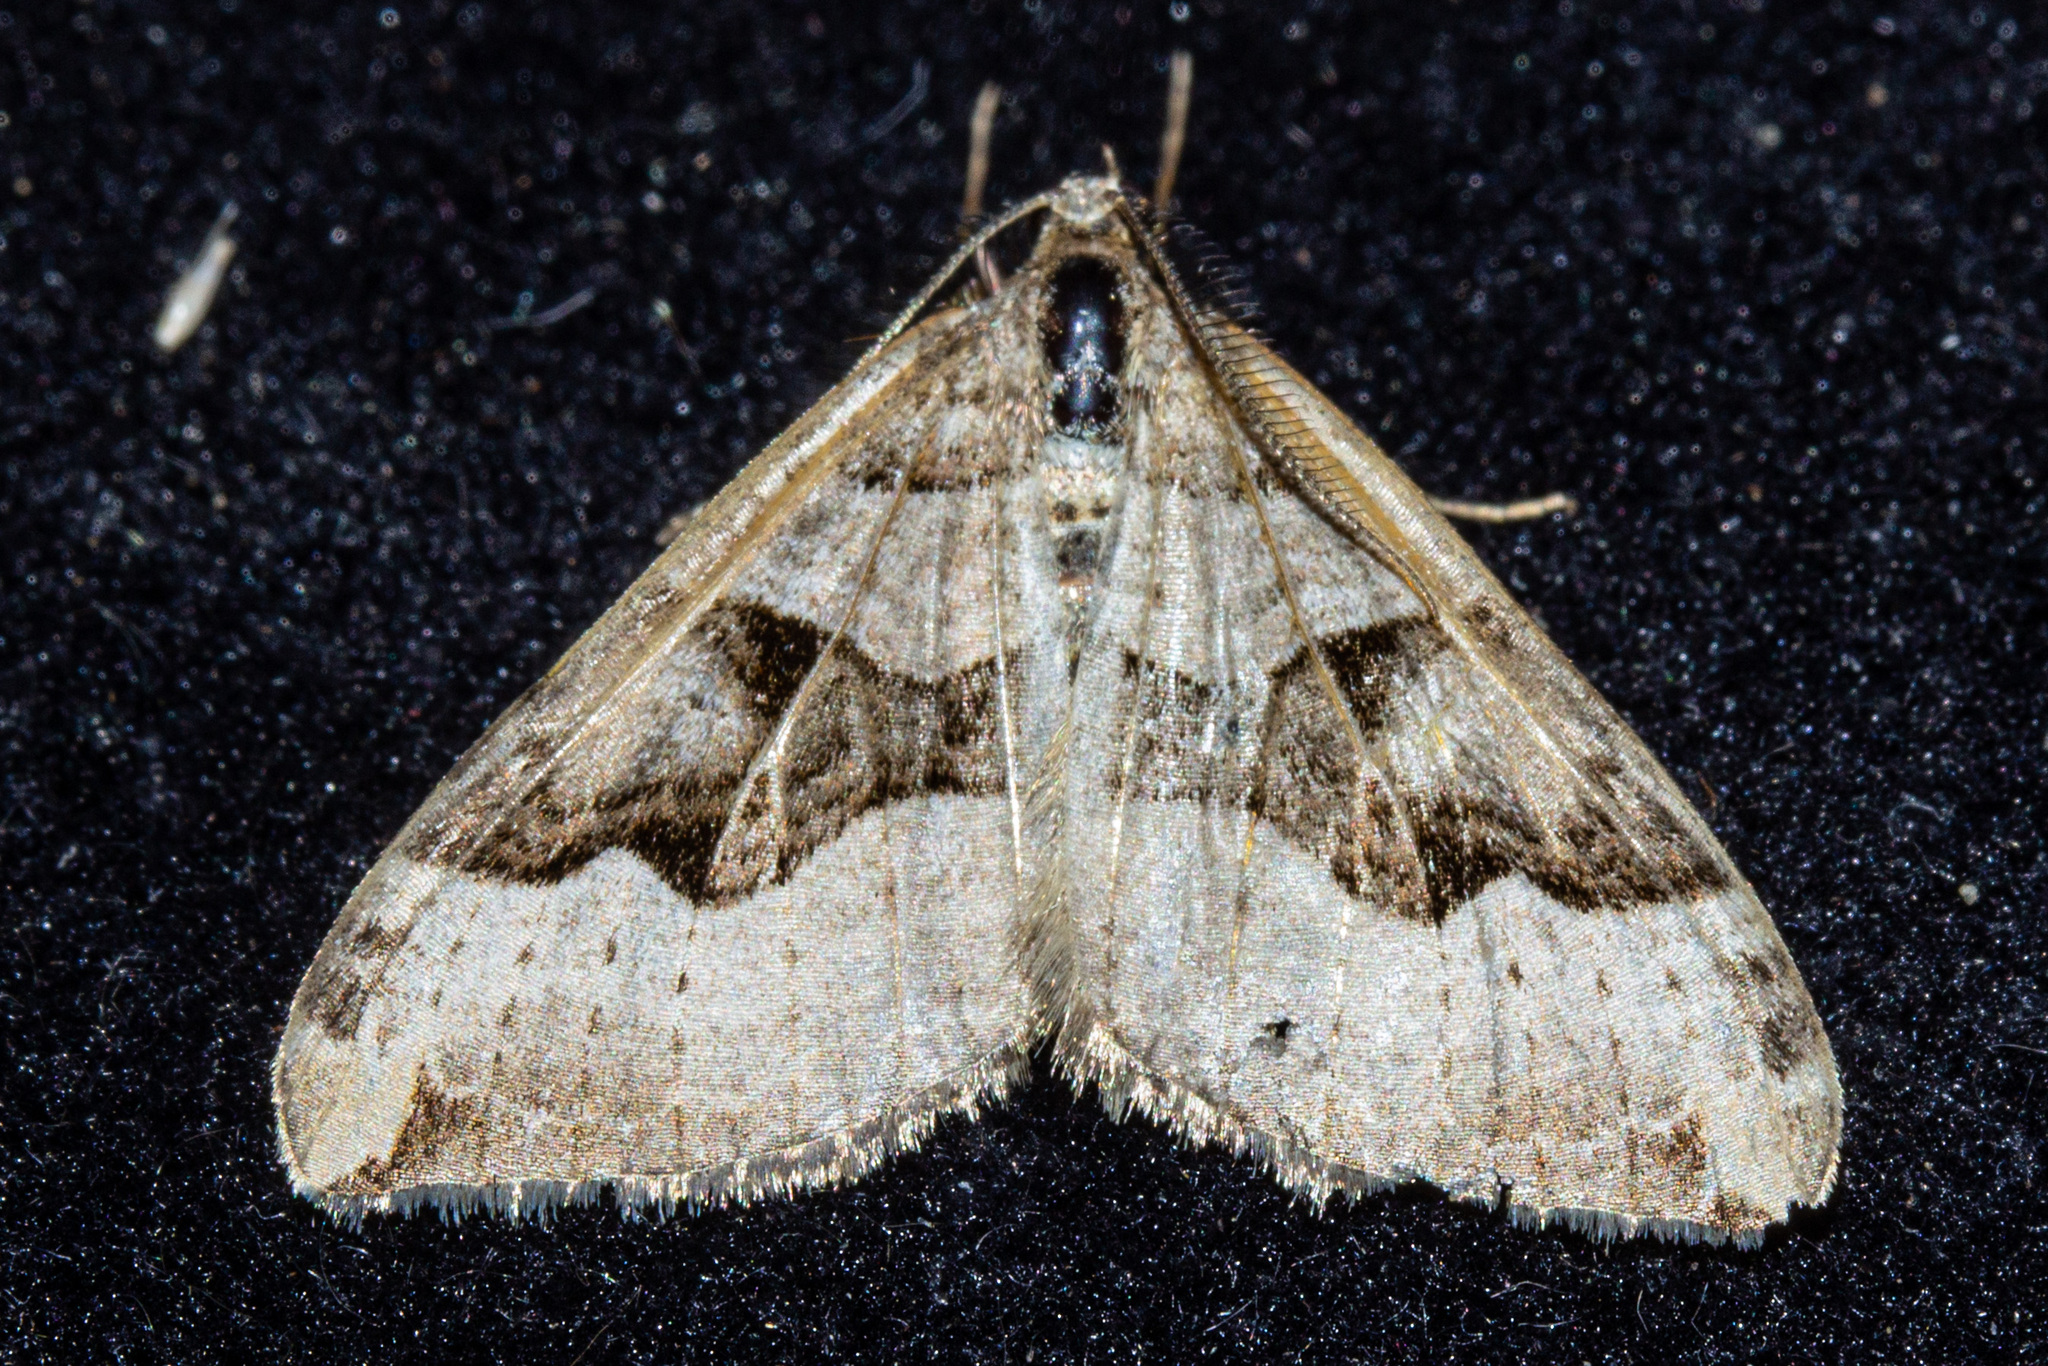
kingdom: Animalia
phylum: Arthropoda
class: Insecta
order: Lepidoptera
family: Geometridae
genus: Xanthorhoe
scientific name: Xanthorhoe semifissata
